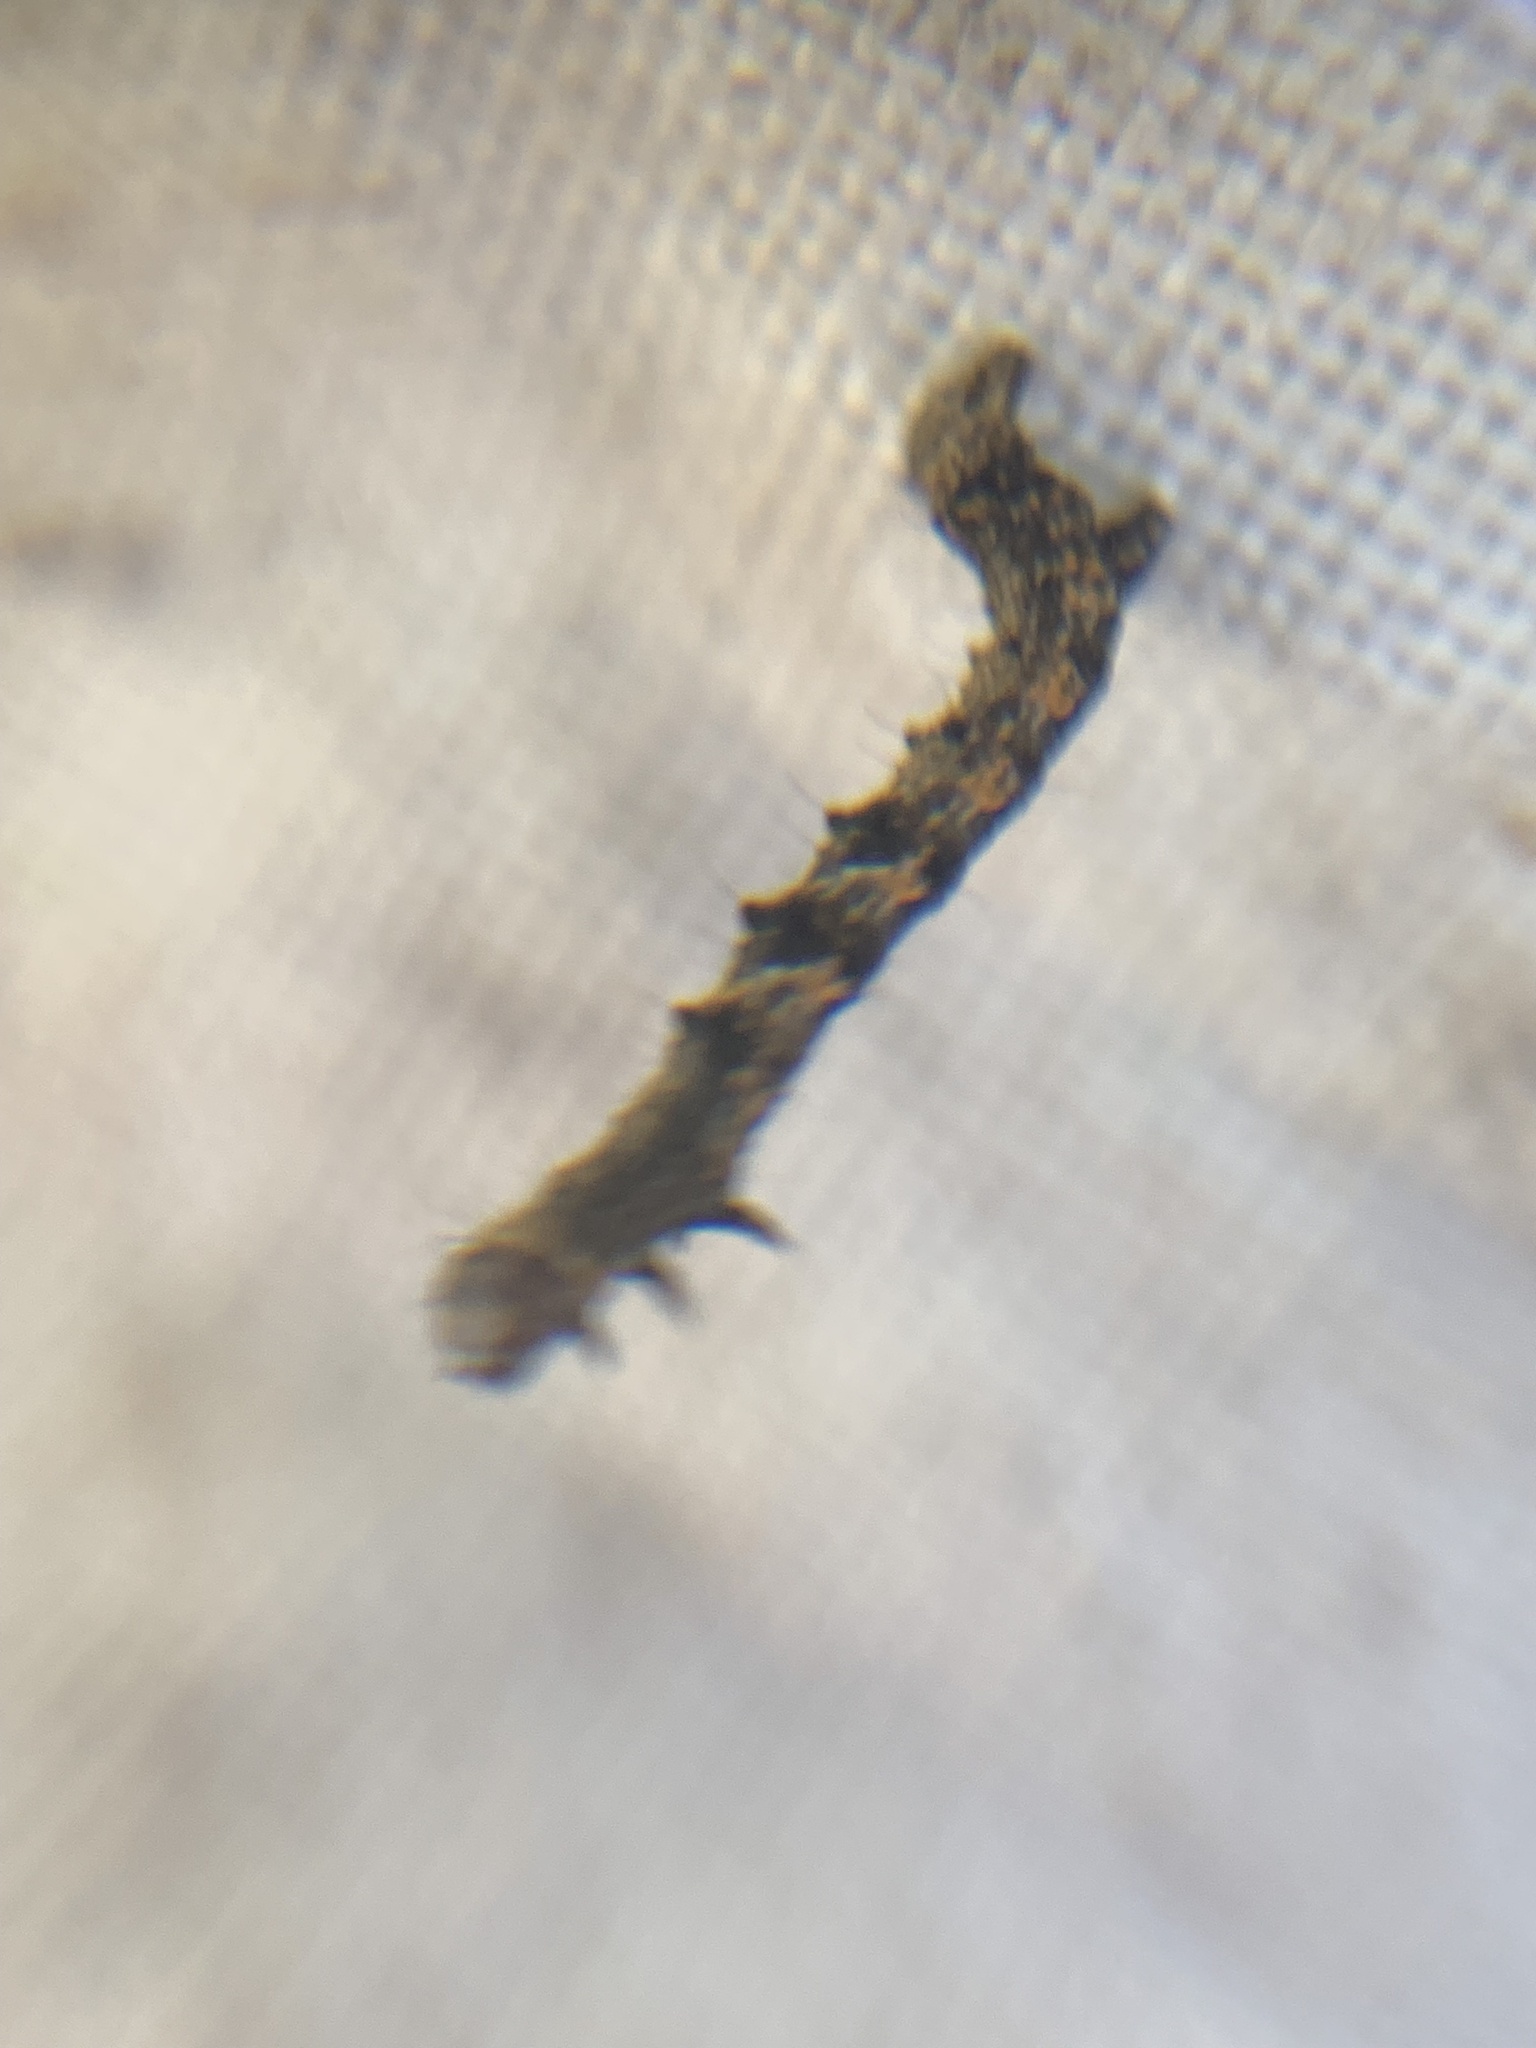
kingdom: Animalia
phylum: Arthropoda
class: Insecta
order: Lepidoptera
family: Geometridae
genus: Phigalia
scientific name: Phigalia pilosaria
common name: Pale brindled beauty
